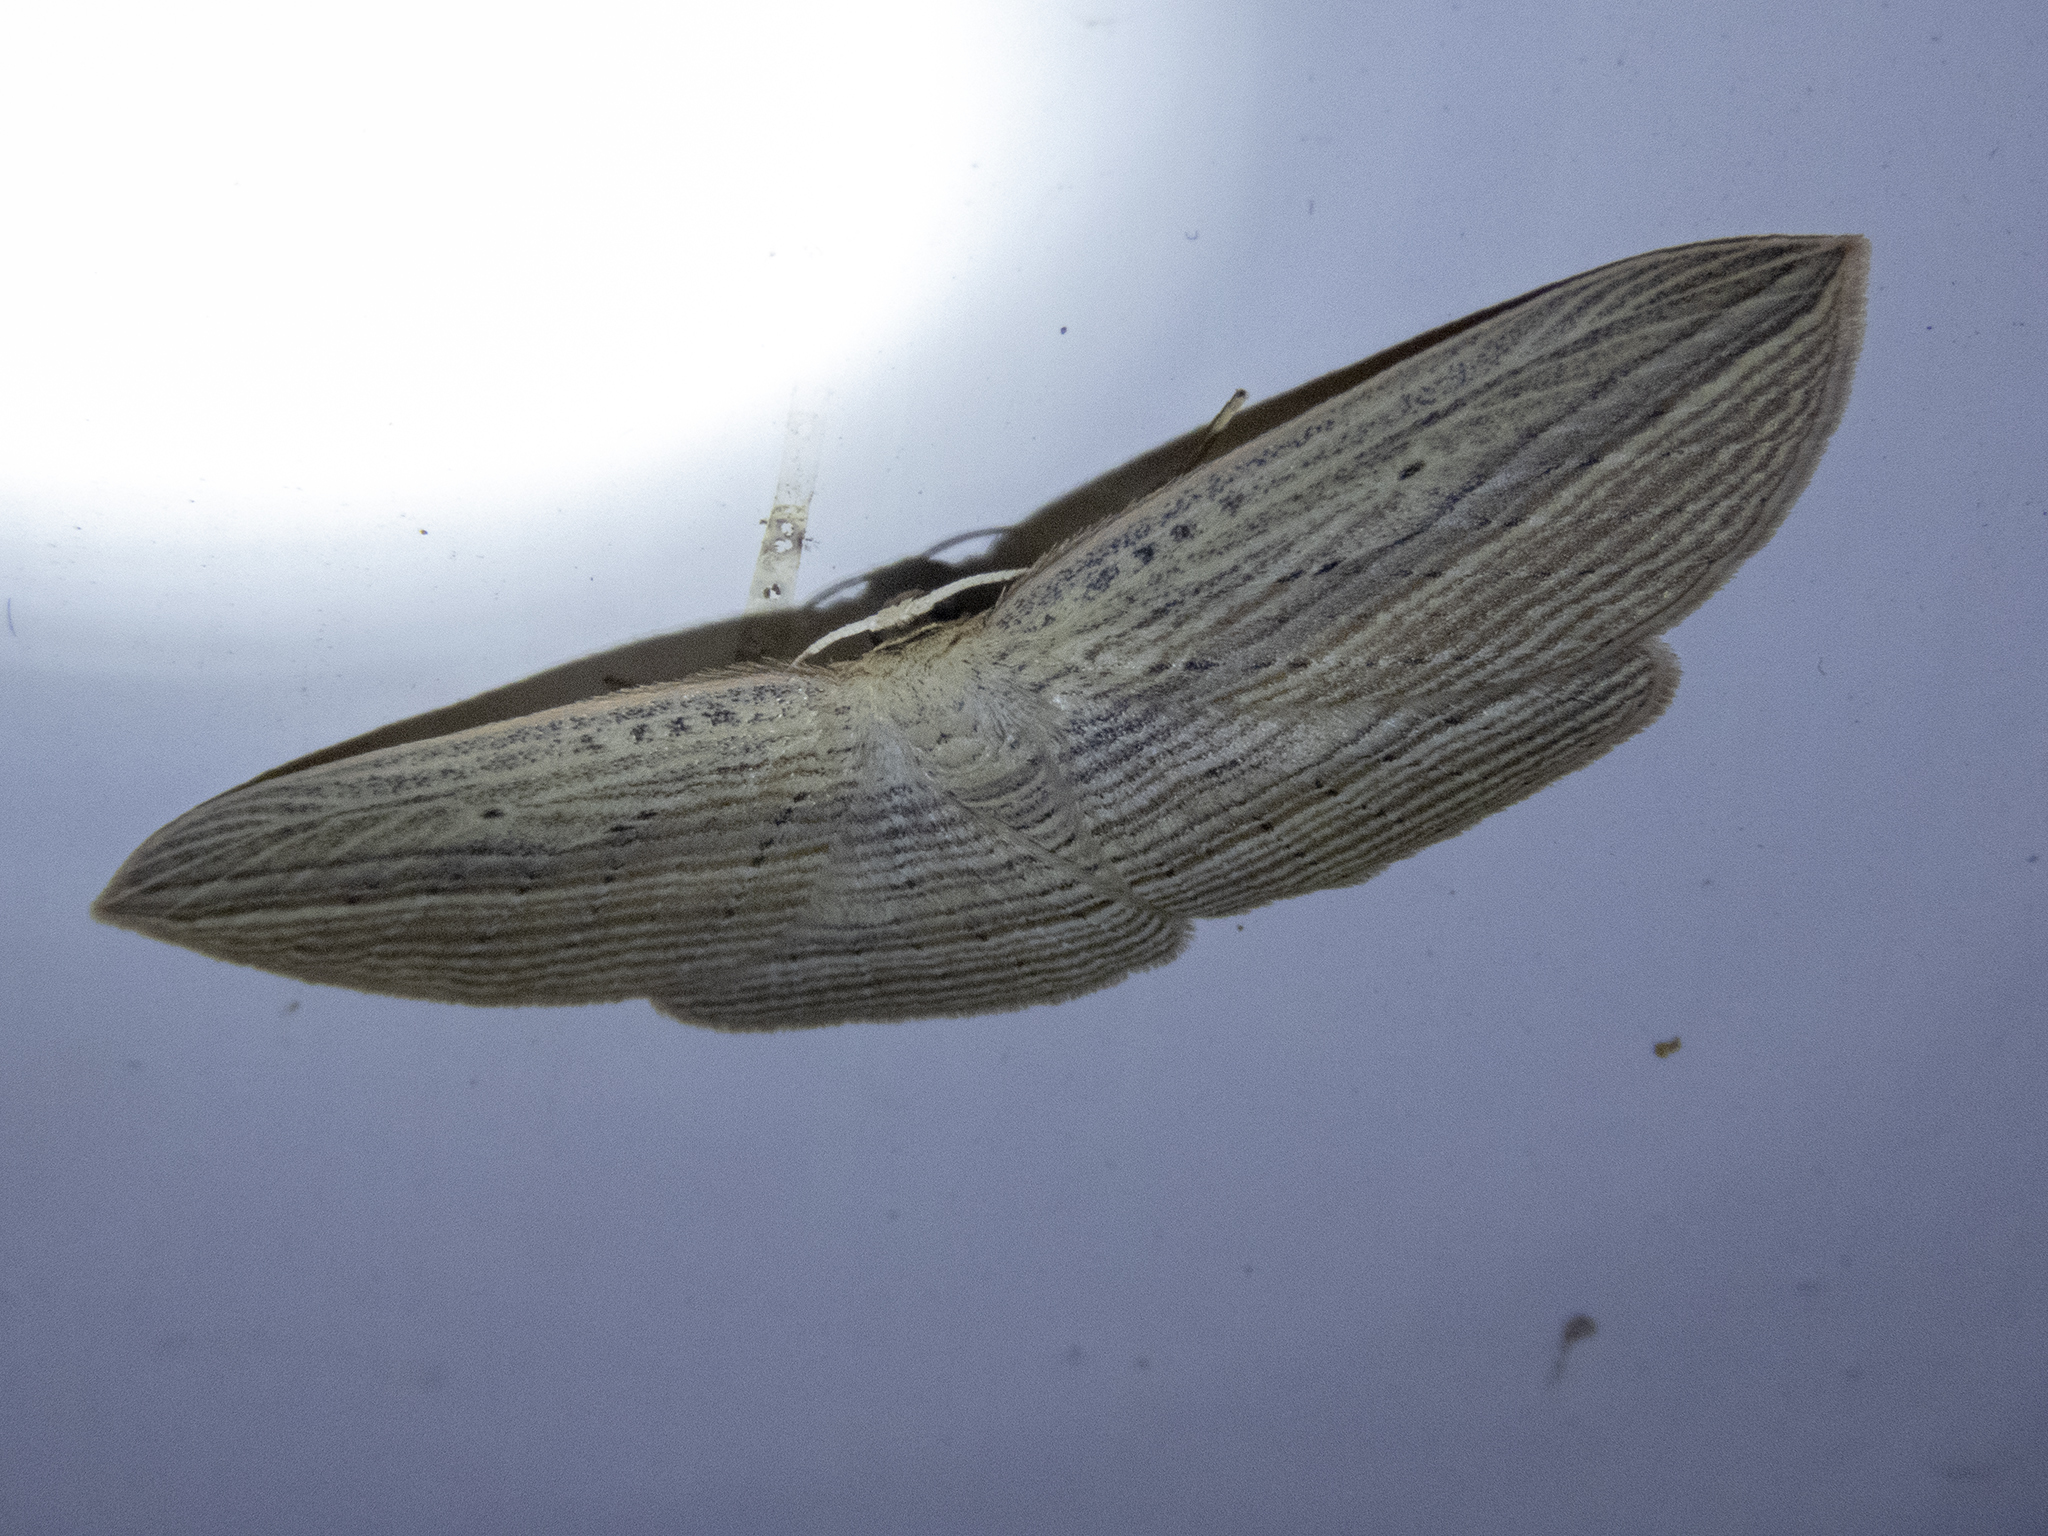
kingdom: Animalia
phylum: Arthropoda
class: Insecta
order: Lepidoptera
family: Geometridae
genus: Epiphryne
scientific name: Epiphryne verriculata
